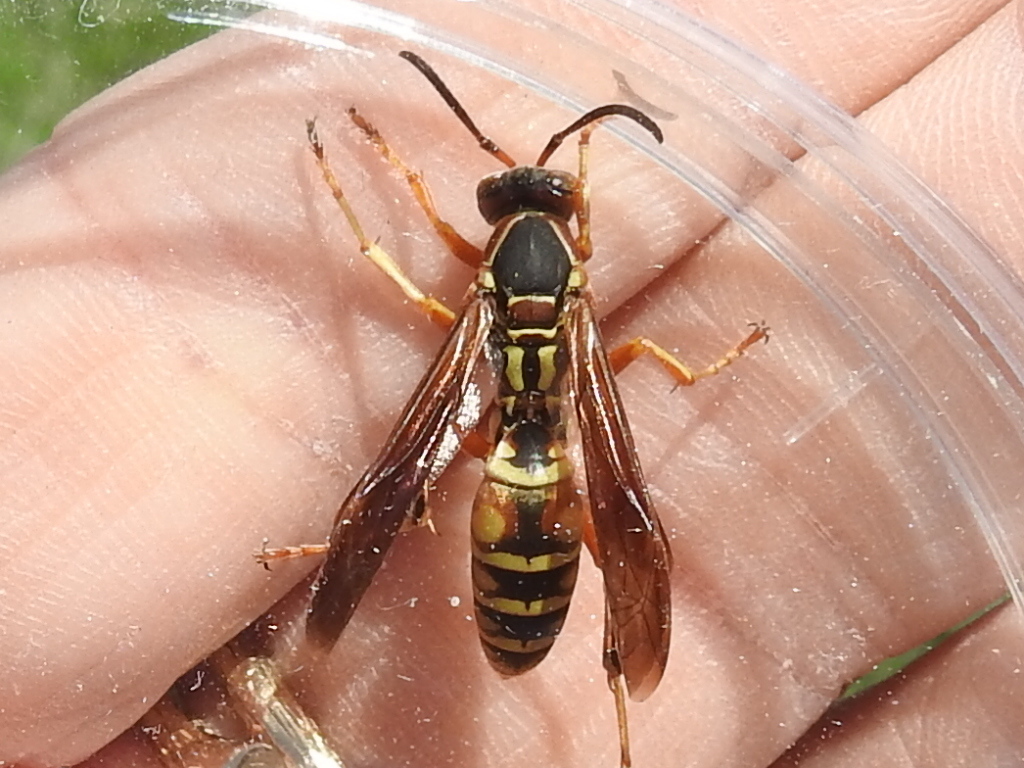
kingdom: Animalia
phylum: Arthropoda
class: Insecta
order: Hymenoptera
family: Eumenidae
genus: Polistes
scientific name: Polistes fuscatus
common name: Dark paper wasp
